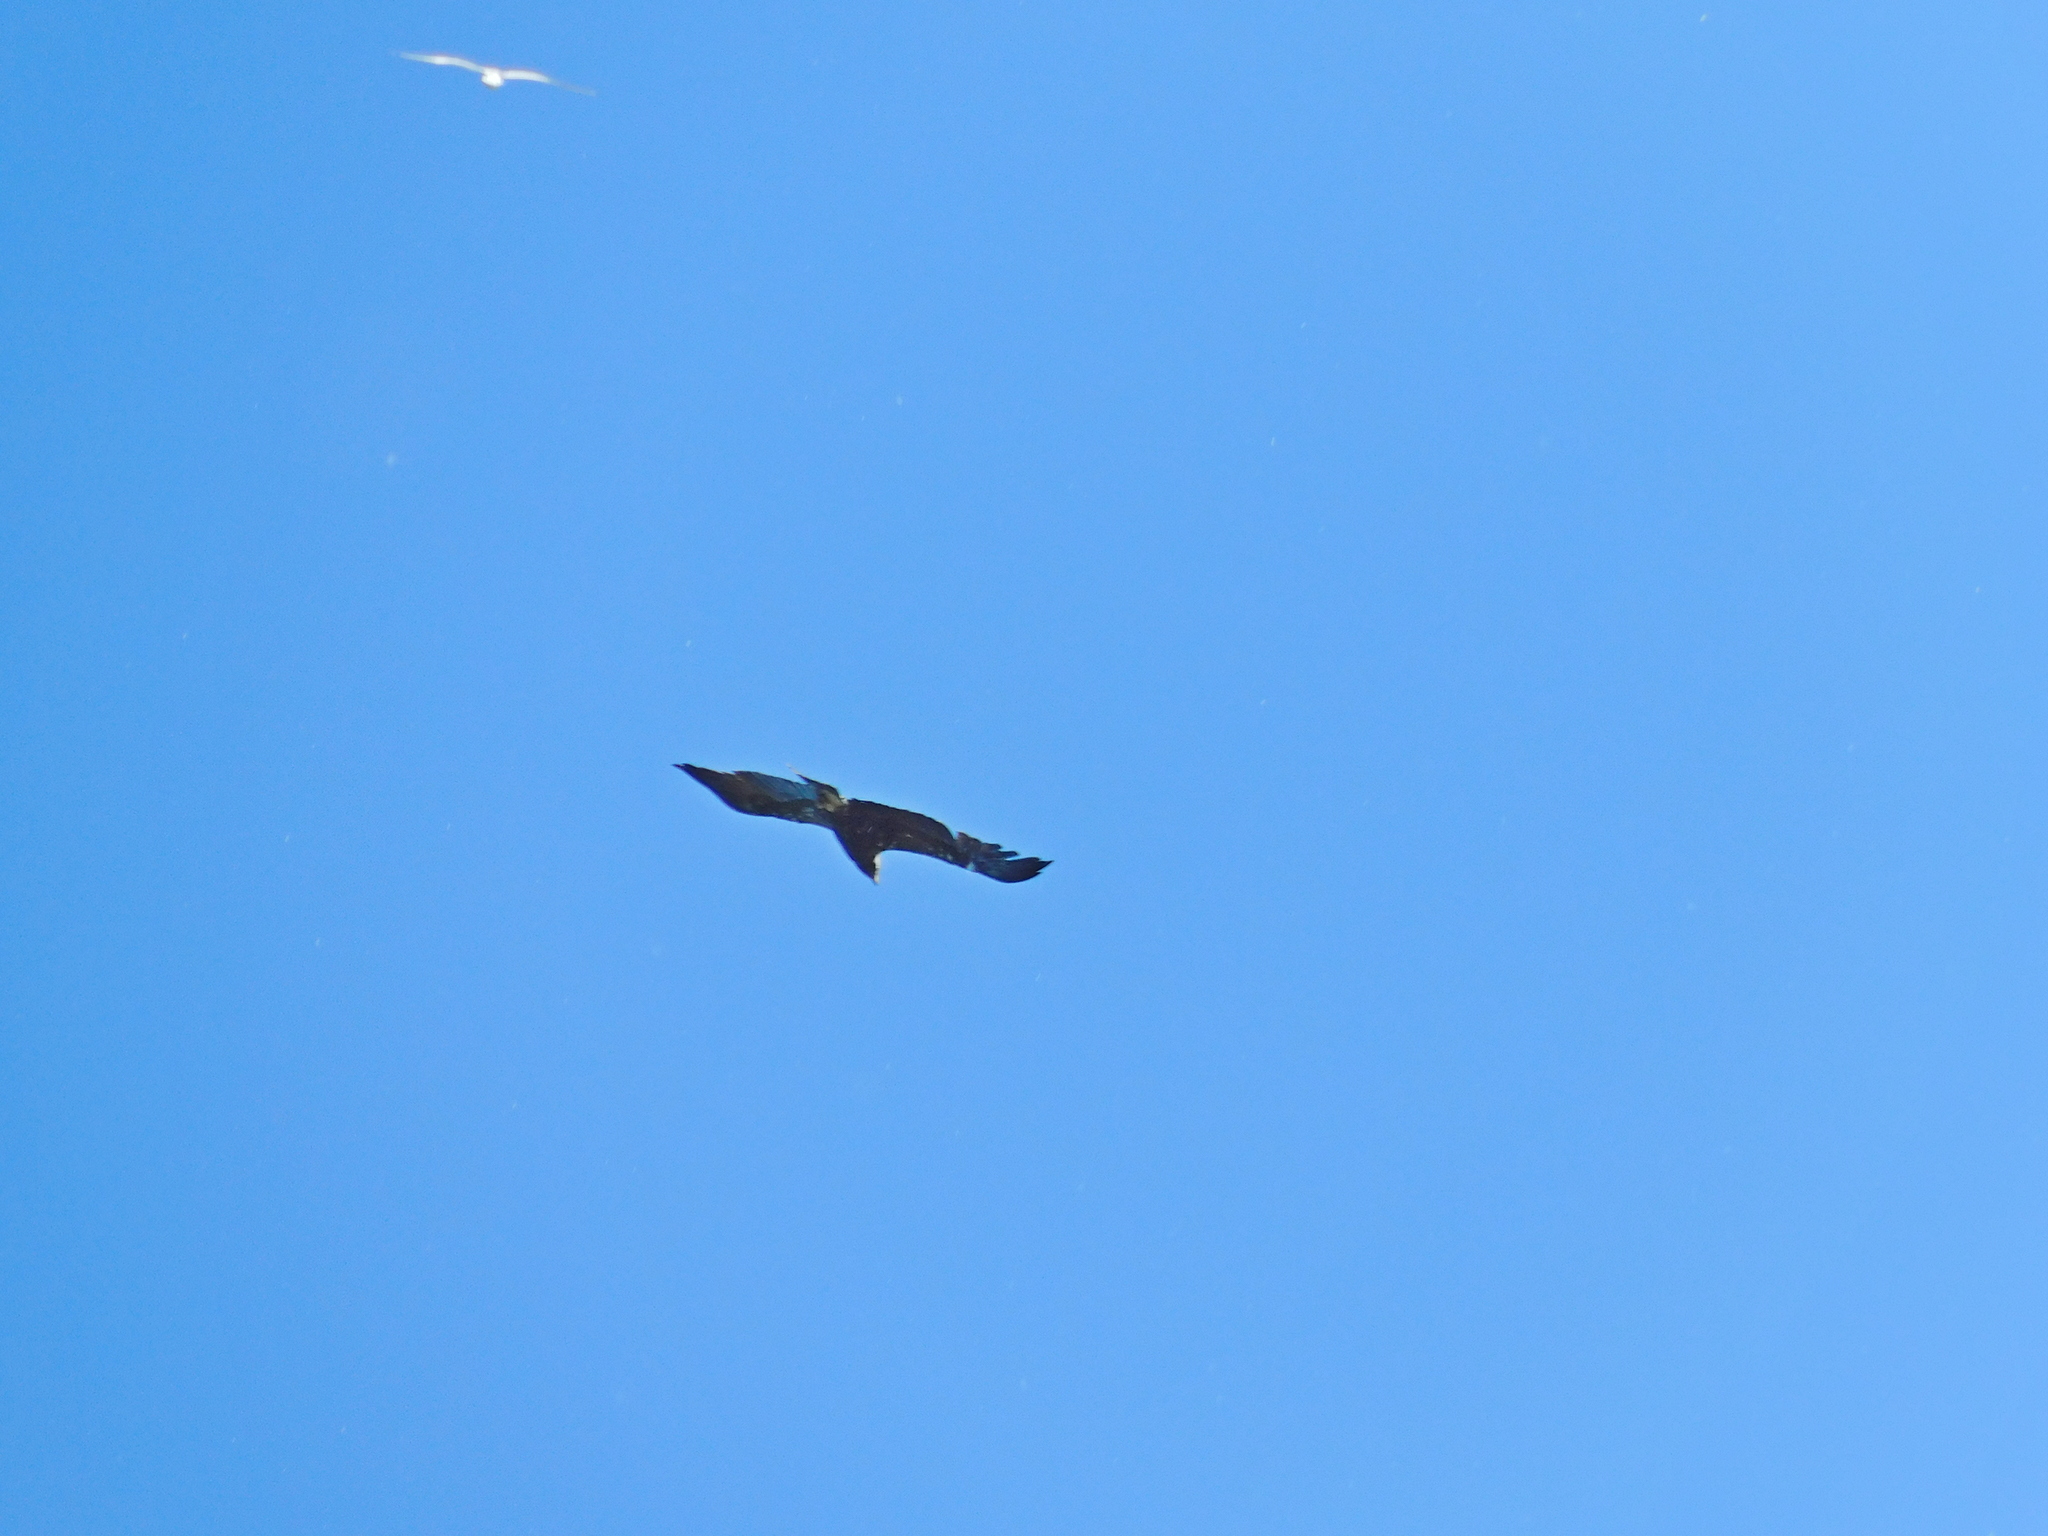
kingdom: Animalia
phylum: Chordata
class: Aves
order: Accipitriformes
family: Accipitridae
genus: Aquila
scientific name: Aquila heliaca
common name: Eastern imperial eagle
